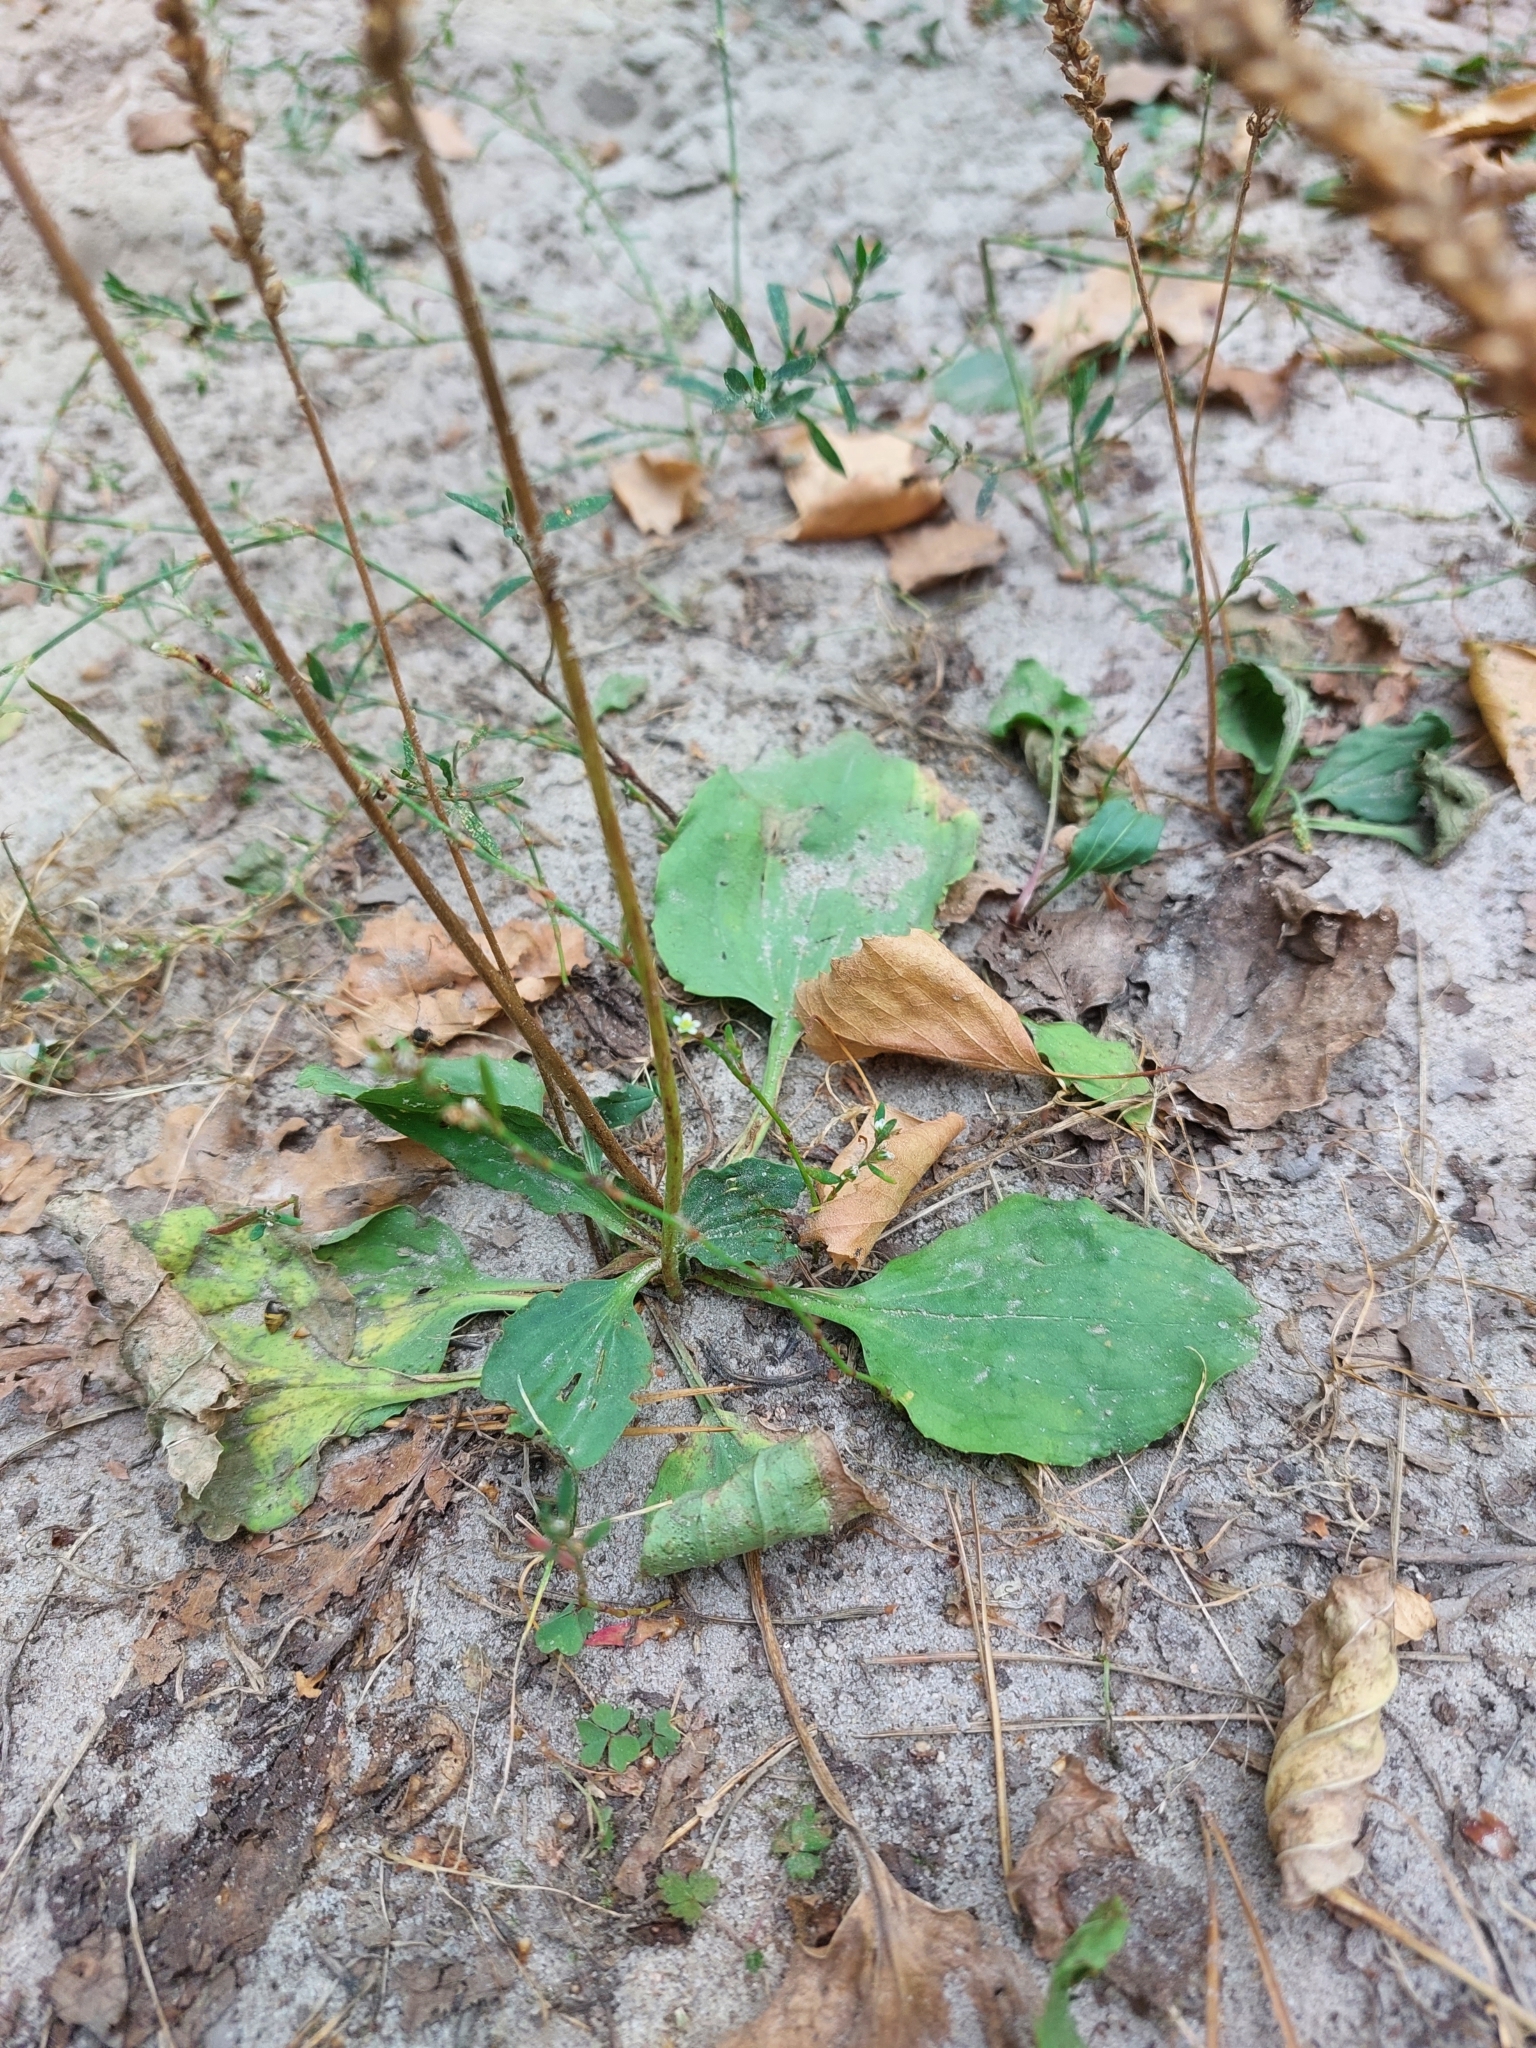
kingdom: Plantae
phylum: Tracheophyta
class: Magnoliopsida
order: Lamiales
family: Plantaginaceae
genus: Plantago
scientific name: Plantago major
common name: Common plantain
